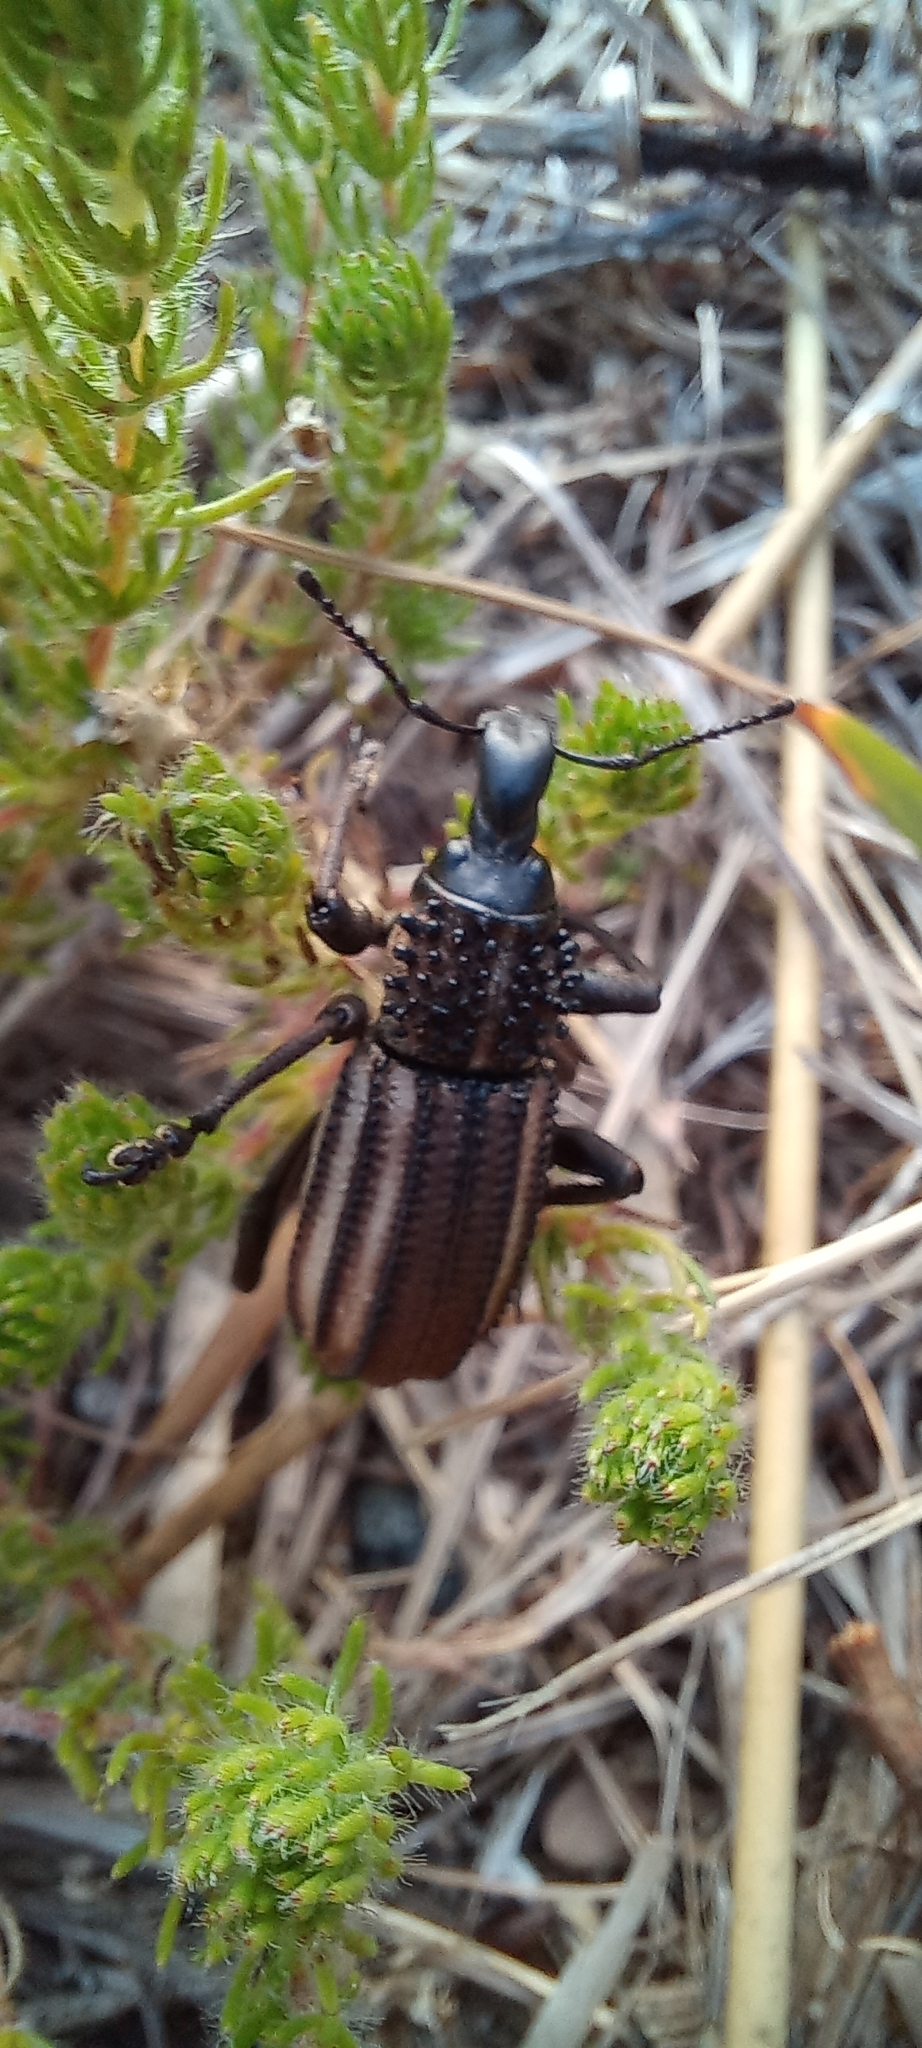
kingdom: Animalia
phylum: Arthropoda
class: Insecta
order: Coleoptera
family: Curculionidae
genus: Bronchus
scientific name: Bronchus
